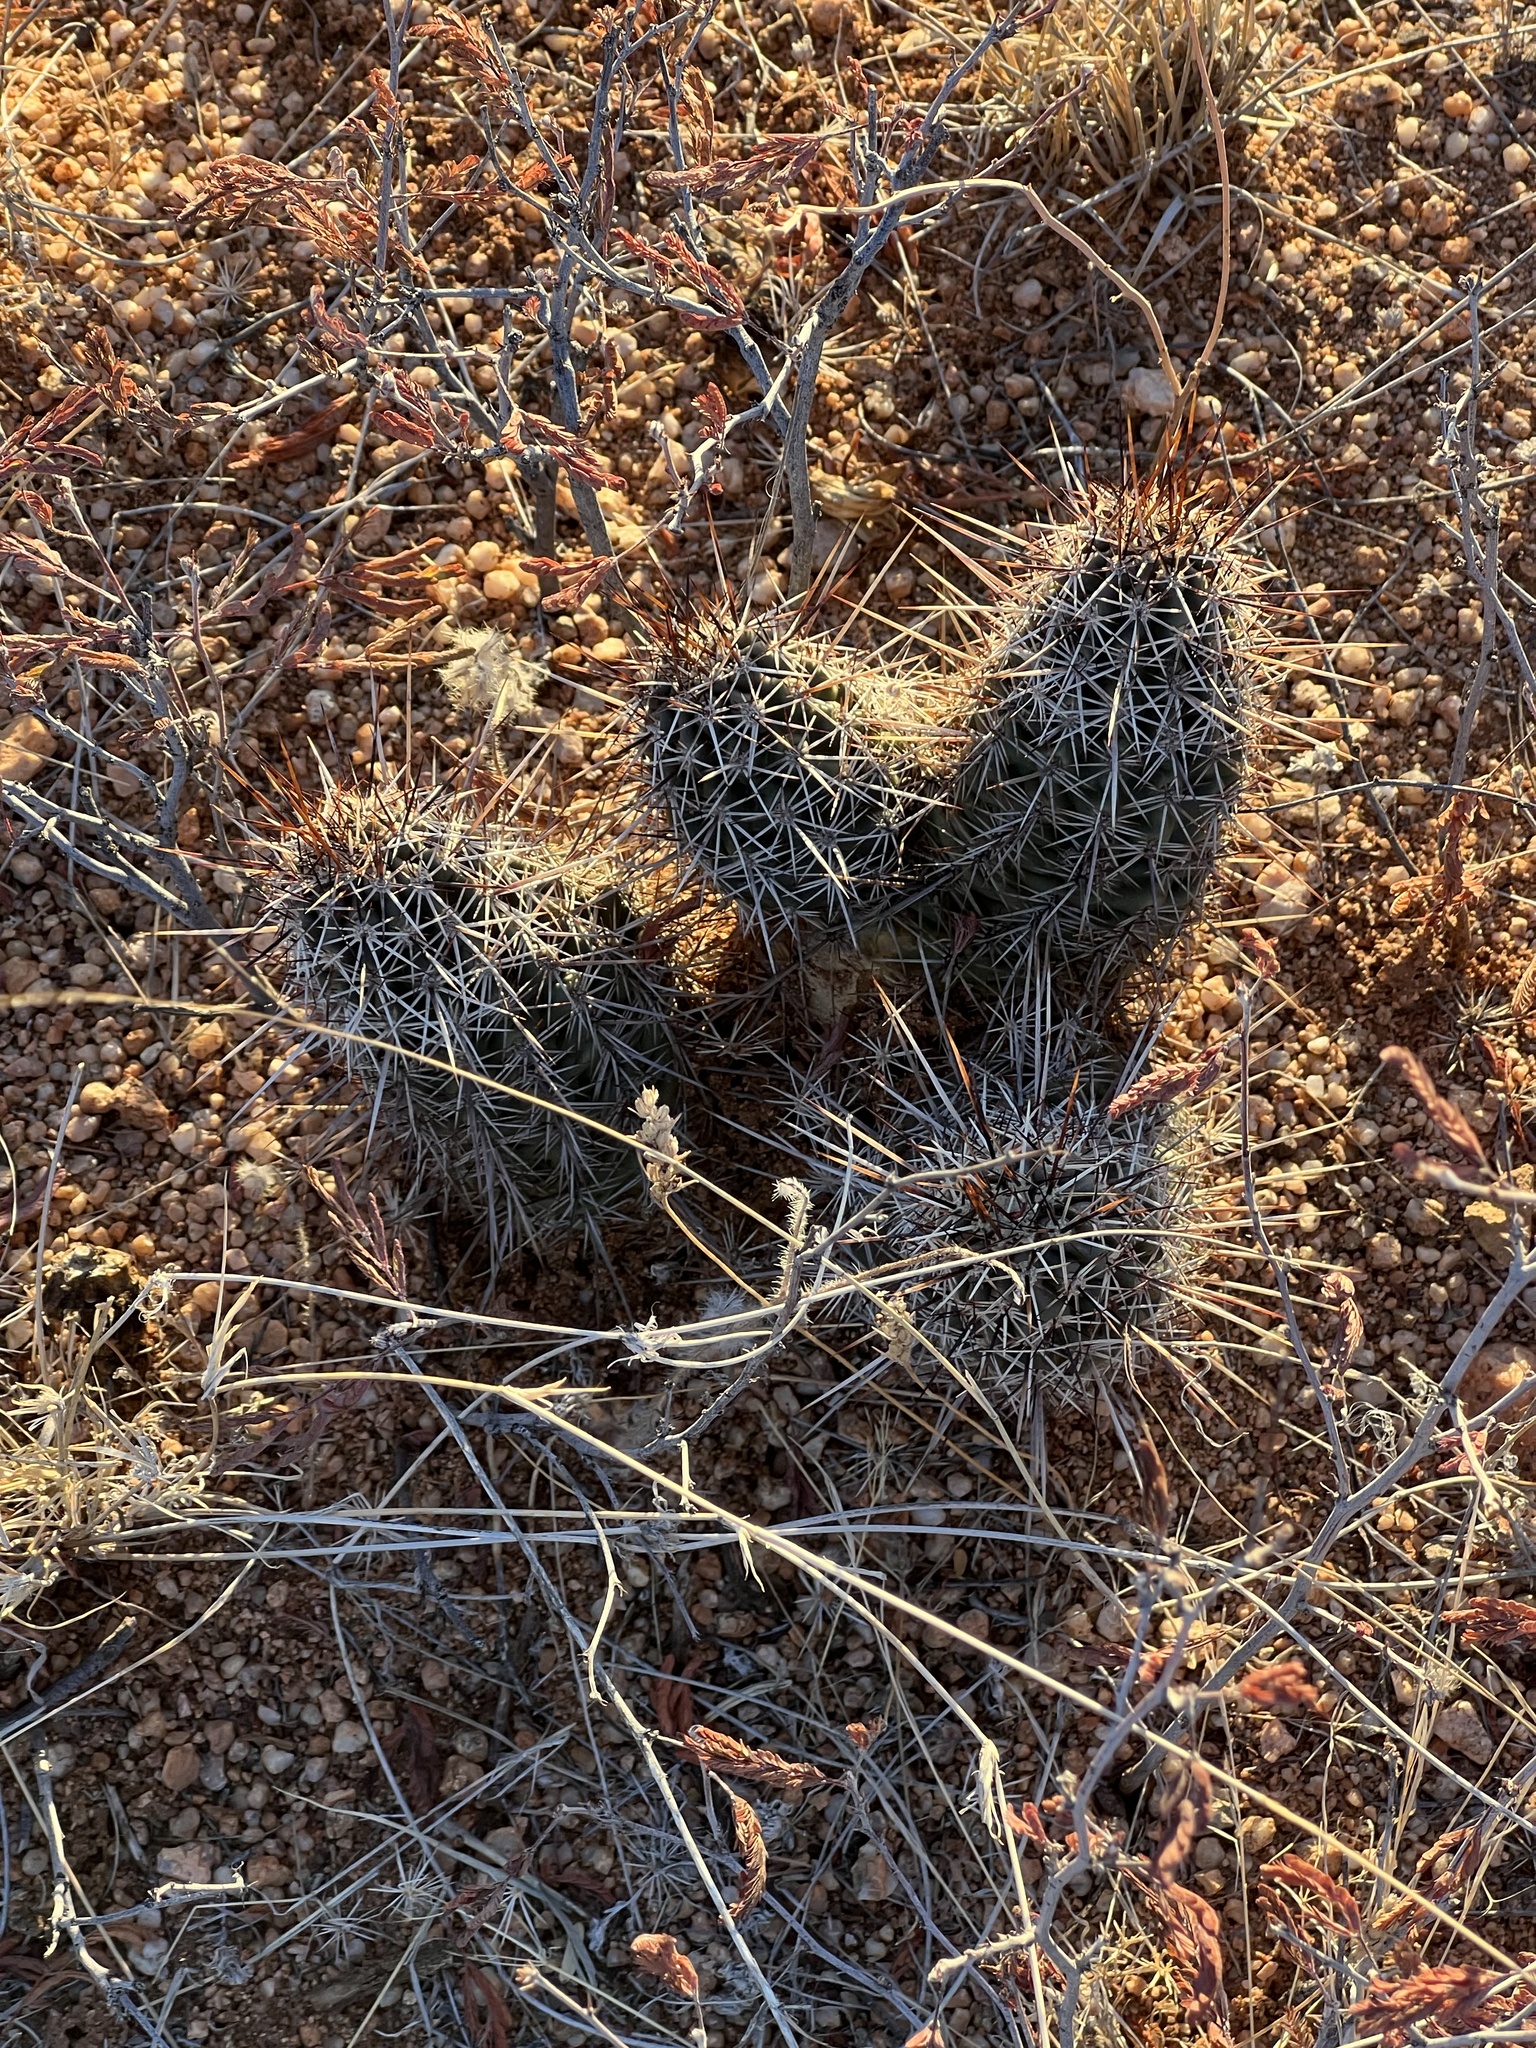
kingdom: Plantae
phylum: Tracheophyta
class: Magnoliopsida
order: Caryophyllales
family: Cactaceae
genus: Echinocereus
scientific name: Echinocereus fasciculatus
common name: Bundle hedgehog
